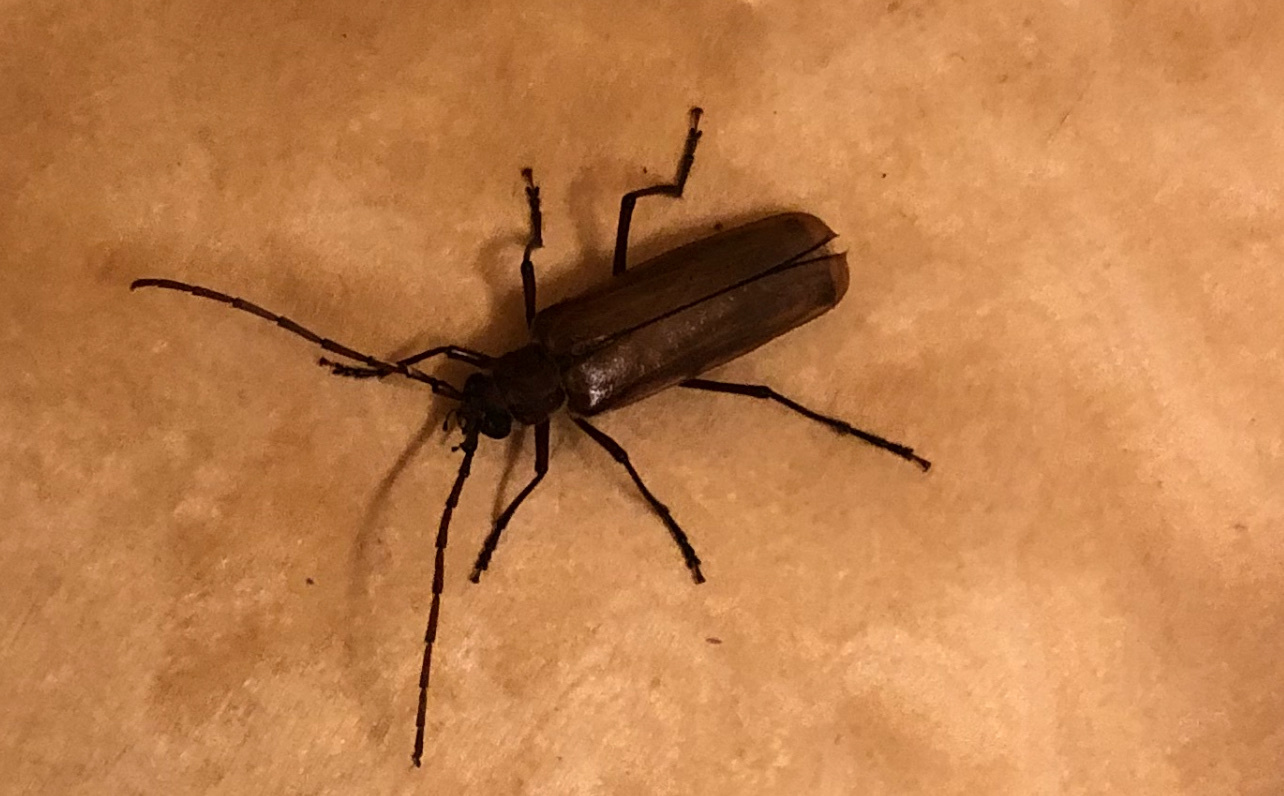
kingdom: Animalia
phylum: Arthropoda
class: Insecta
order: Coleoptera
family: Cerambycidae
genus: Ochrocydus
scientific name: Ochrocydus huttoni
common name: Kanuka longhorn
